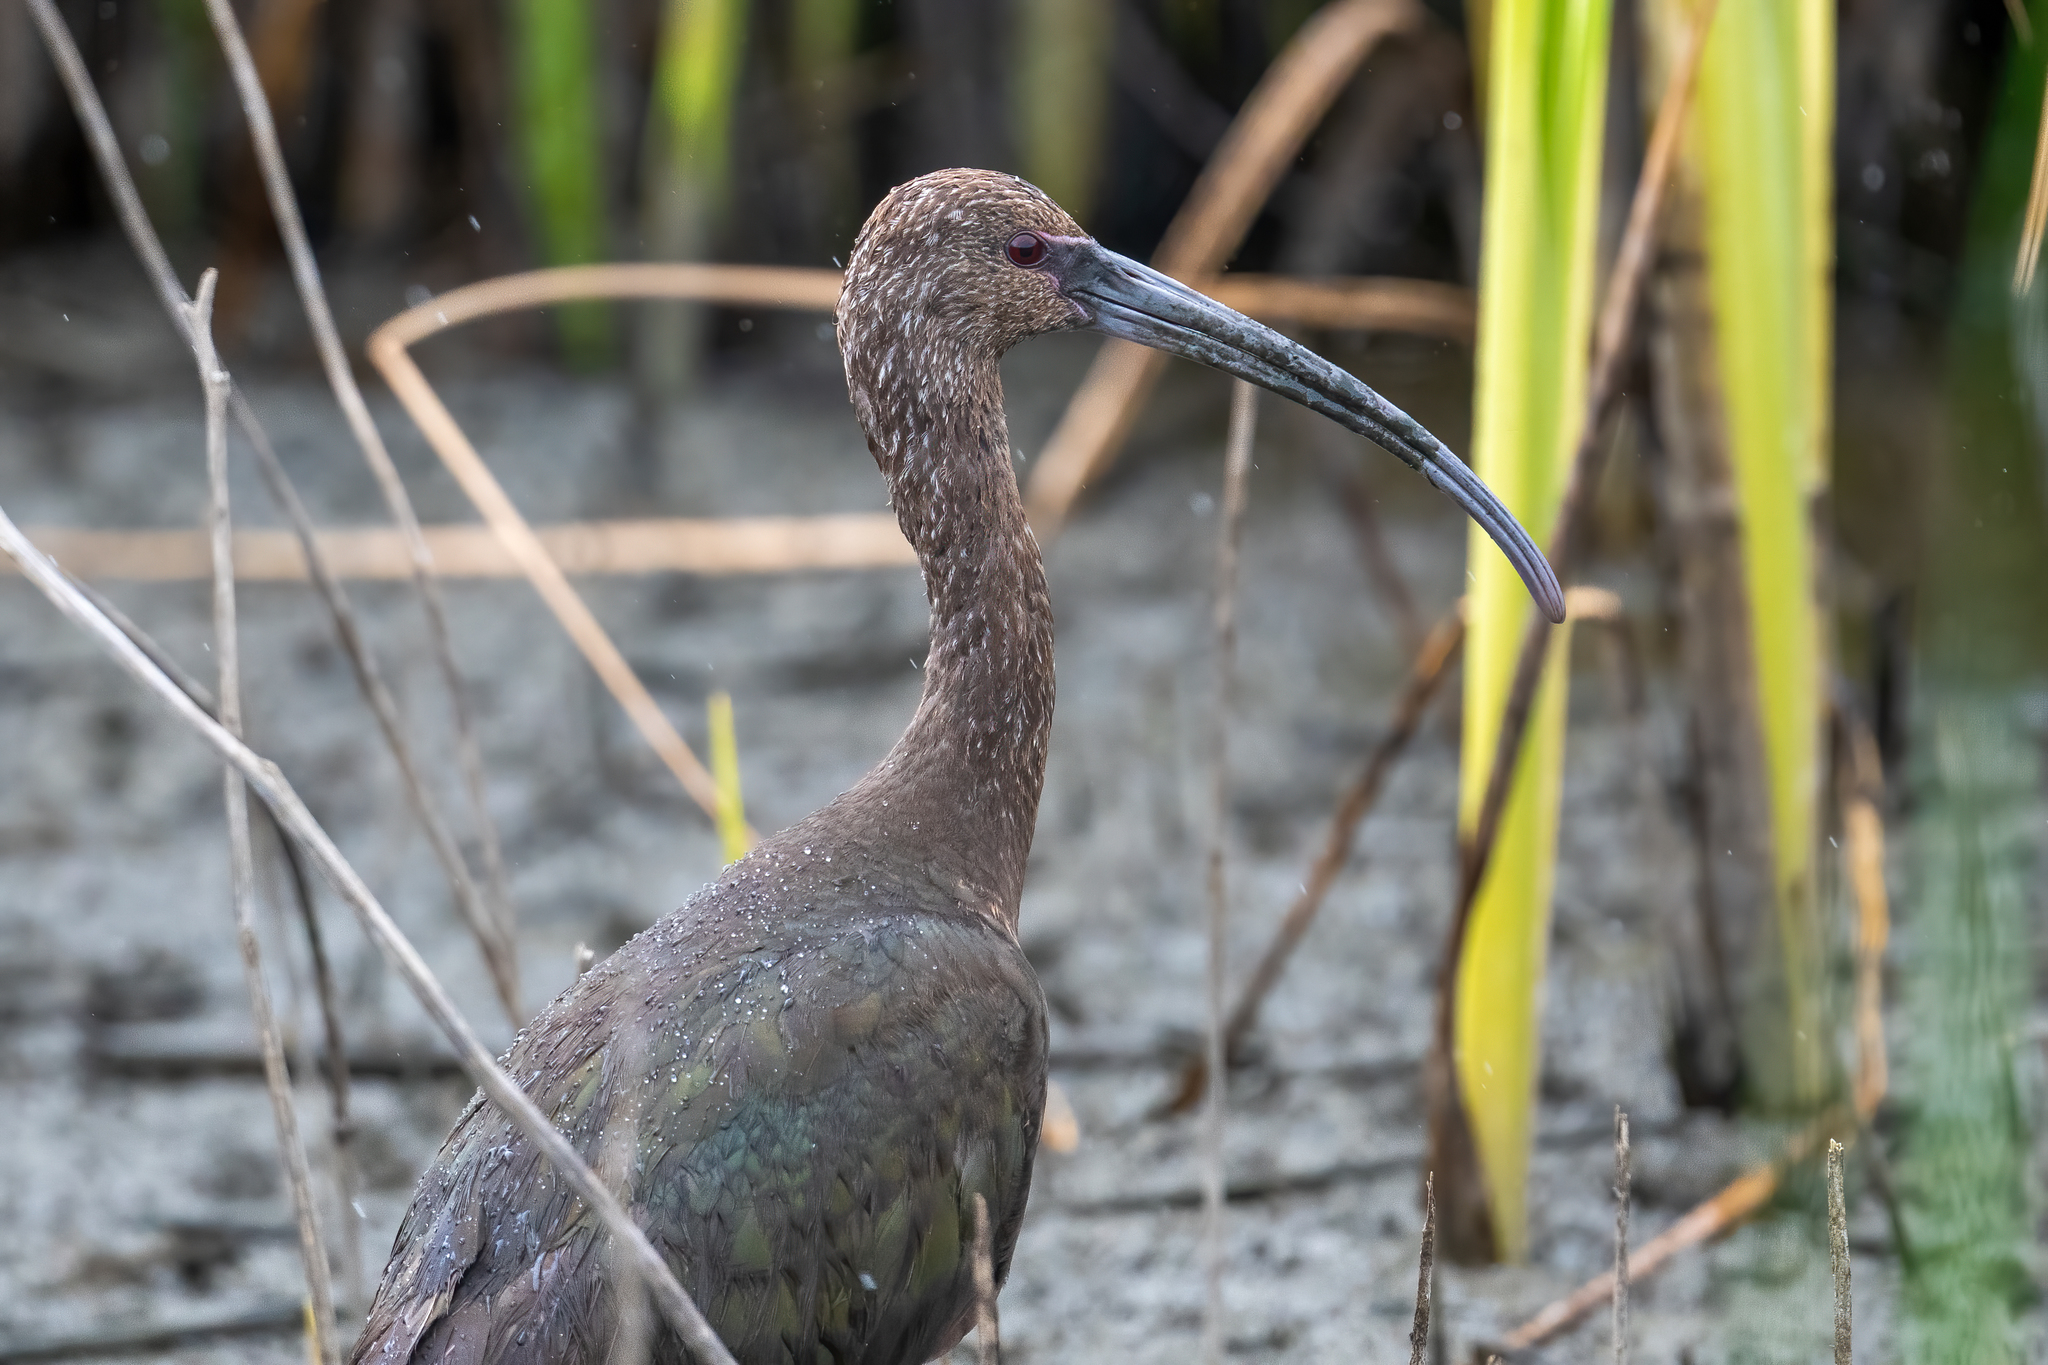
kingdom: Animalia
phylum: Chordata
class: Aves
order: Pelecaniformes
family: Threskiornithidae
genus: Plegadis
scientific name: Plegadis chihi
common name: White-faced ibis
